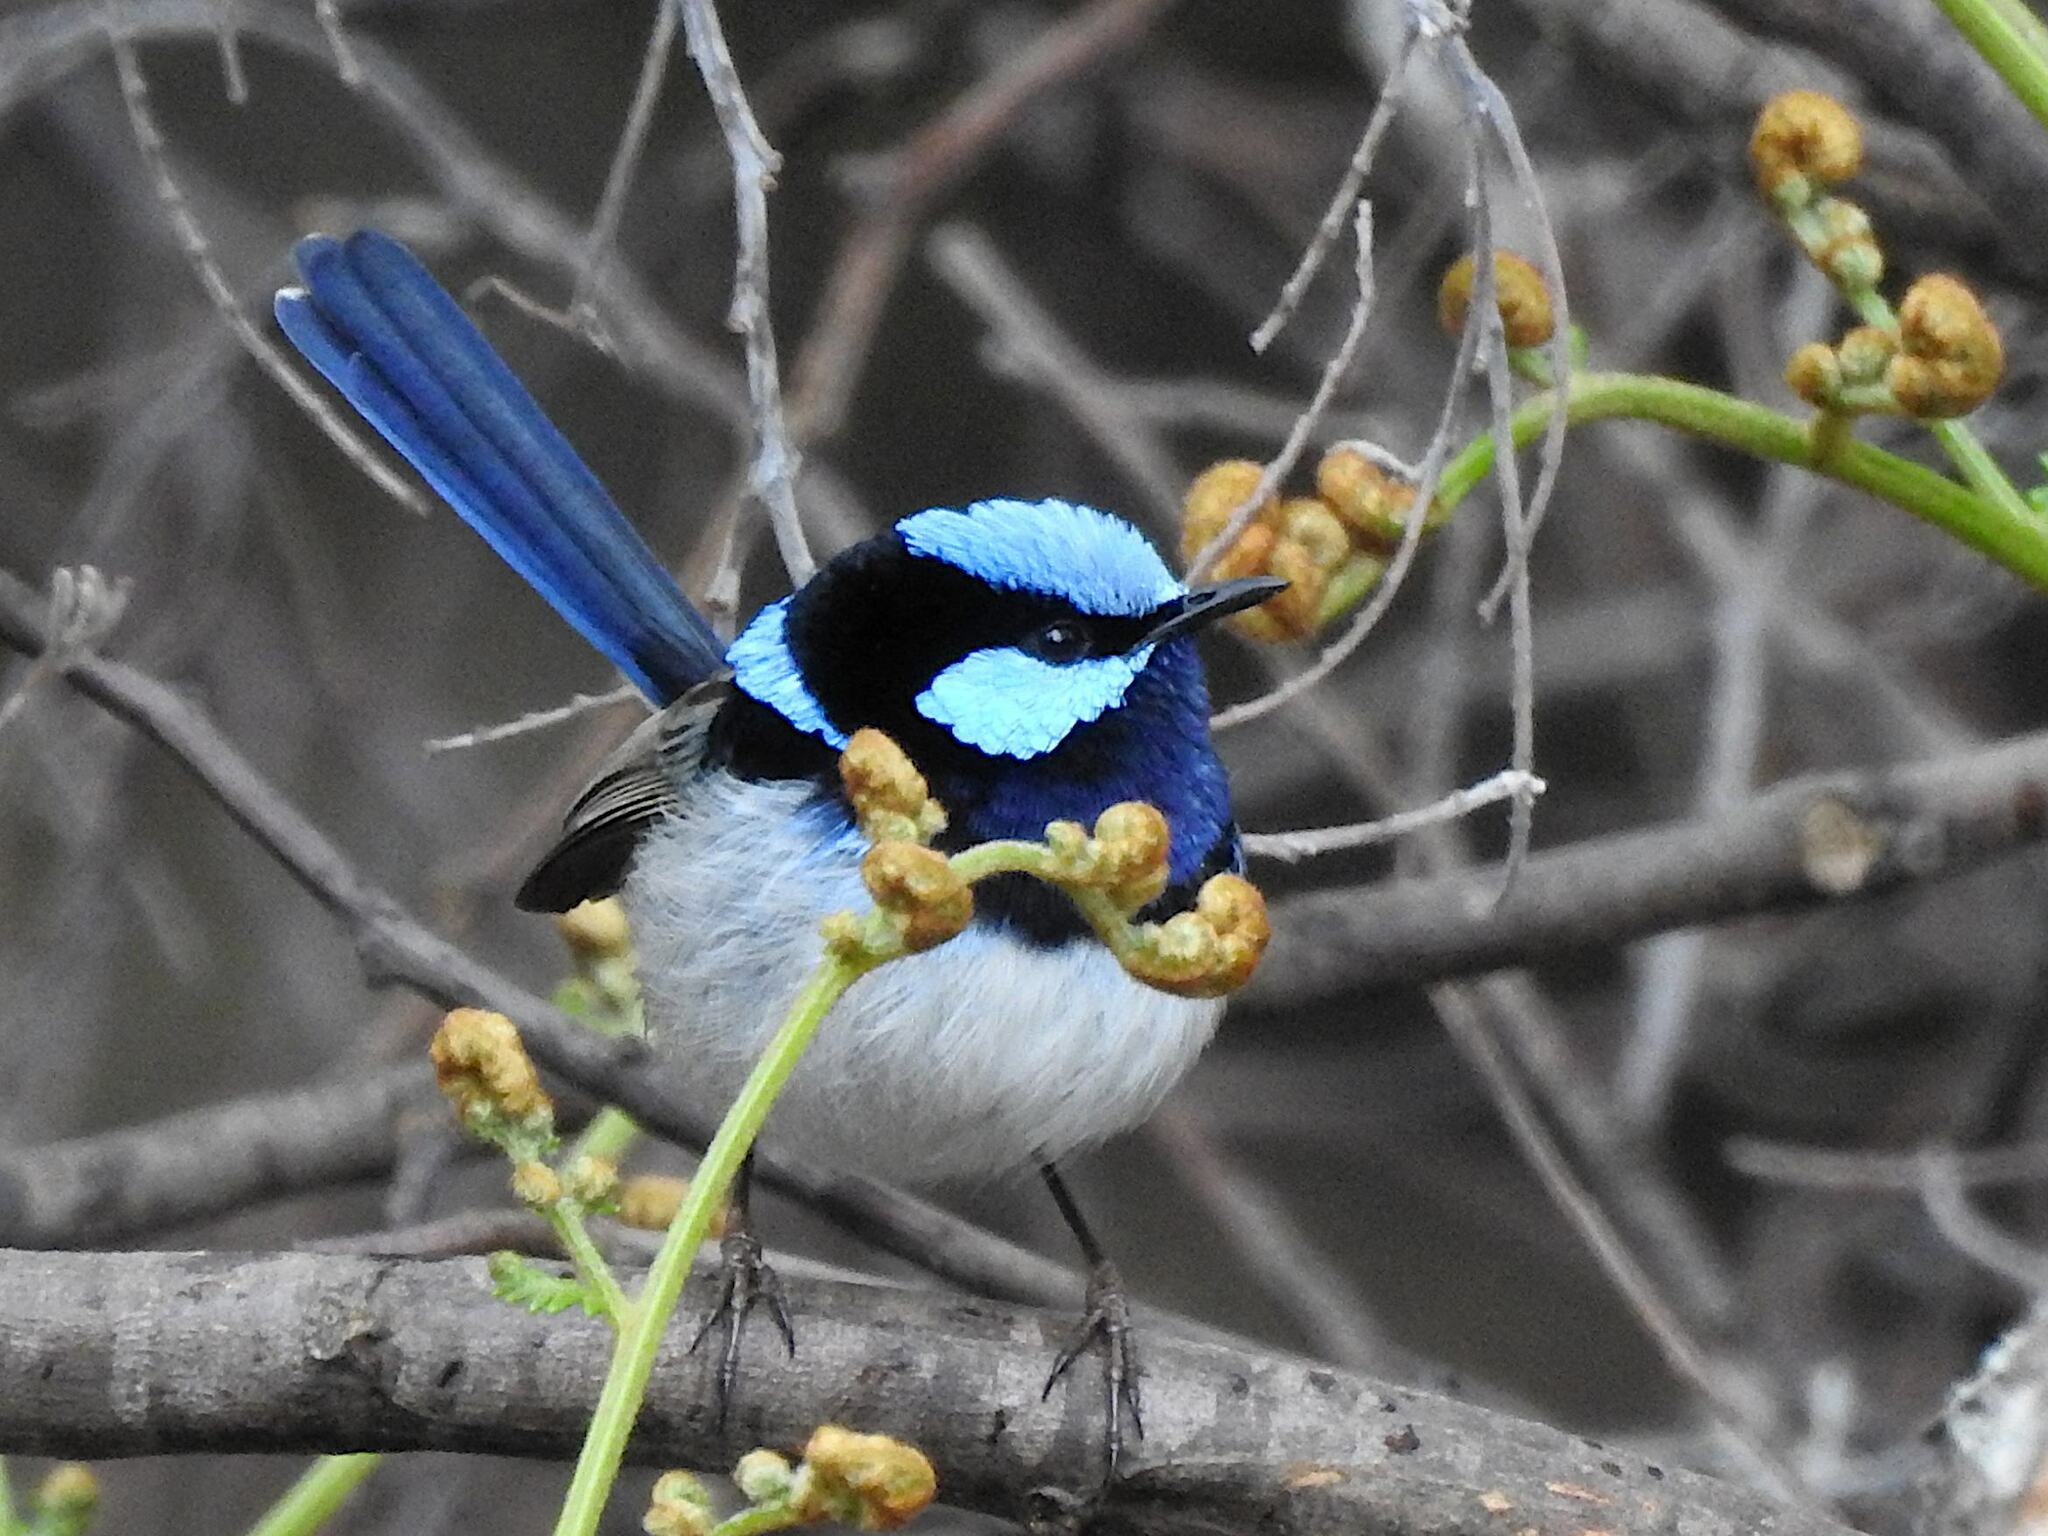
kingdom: Animalia
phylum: Chordata
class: Aves
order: Passeriformes
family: Maluridae
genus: Malurus
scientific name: Malurus cyaneus
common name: Superb fairywren
